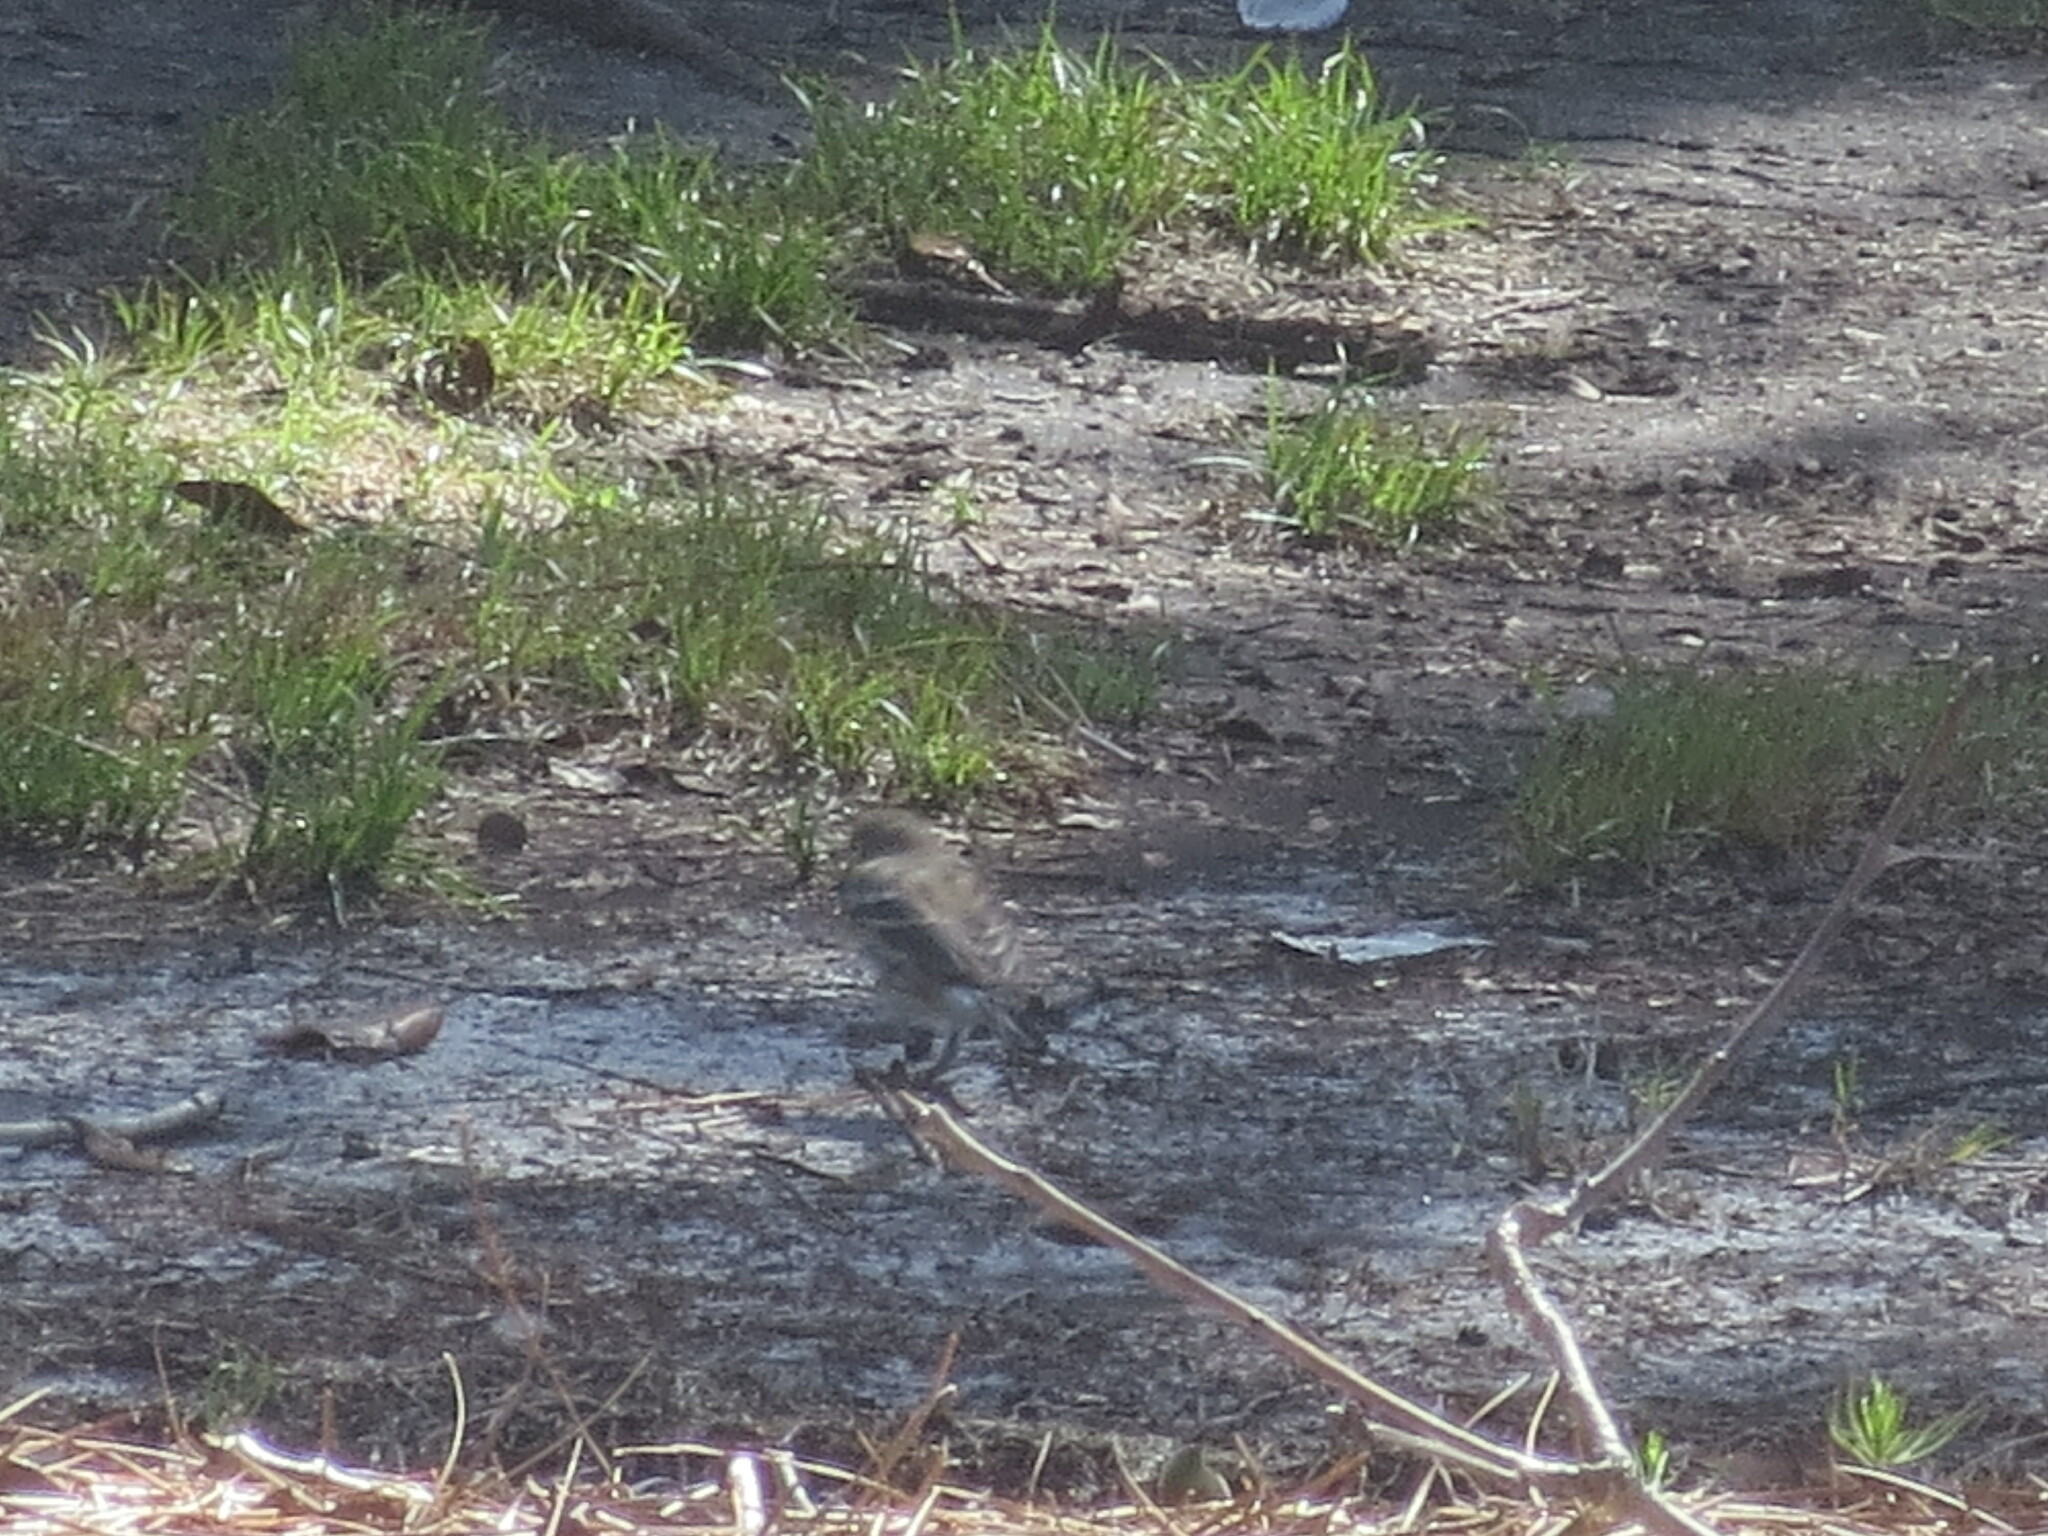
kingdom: Animalia
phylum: Chordata
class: Aves
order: Passeriformes
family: Parulidae
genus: Setophaga
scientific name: Setophaga coronata
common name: Myrtle warbler
